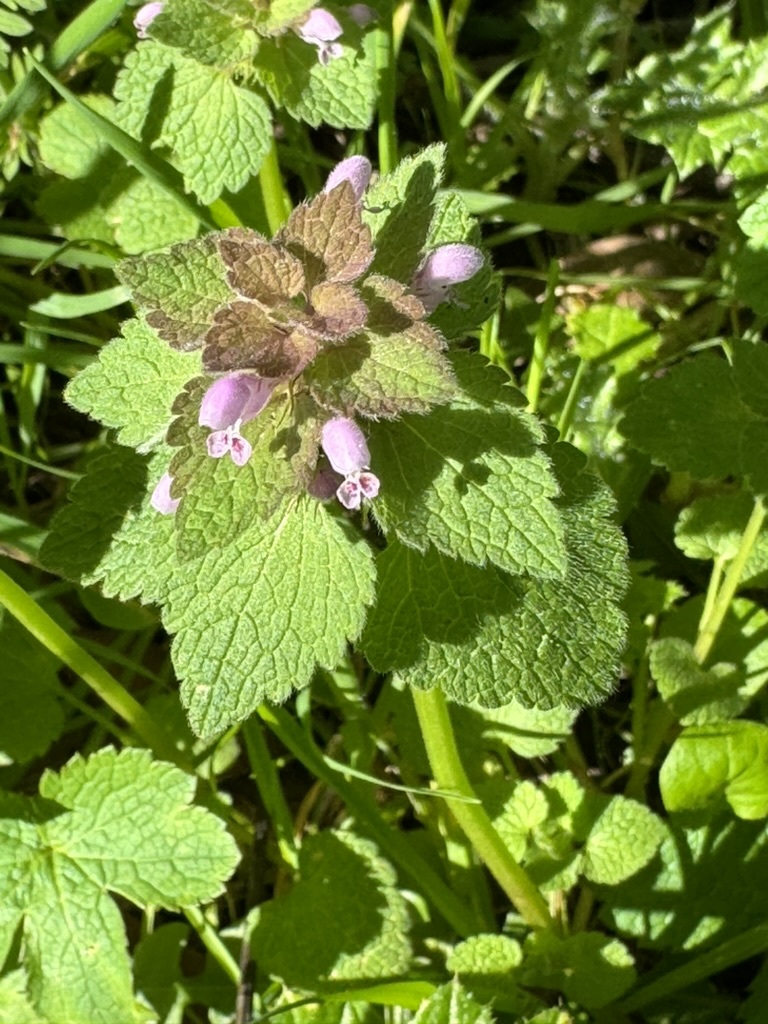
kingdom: Plantae
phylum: Tracheophyta
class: Magnoliopsida
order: Lamiales
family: Lamiaceae
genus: Lamium
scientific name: Lamium purpureum
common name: Red dead-nettle
